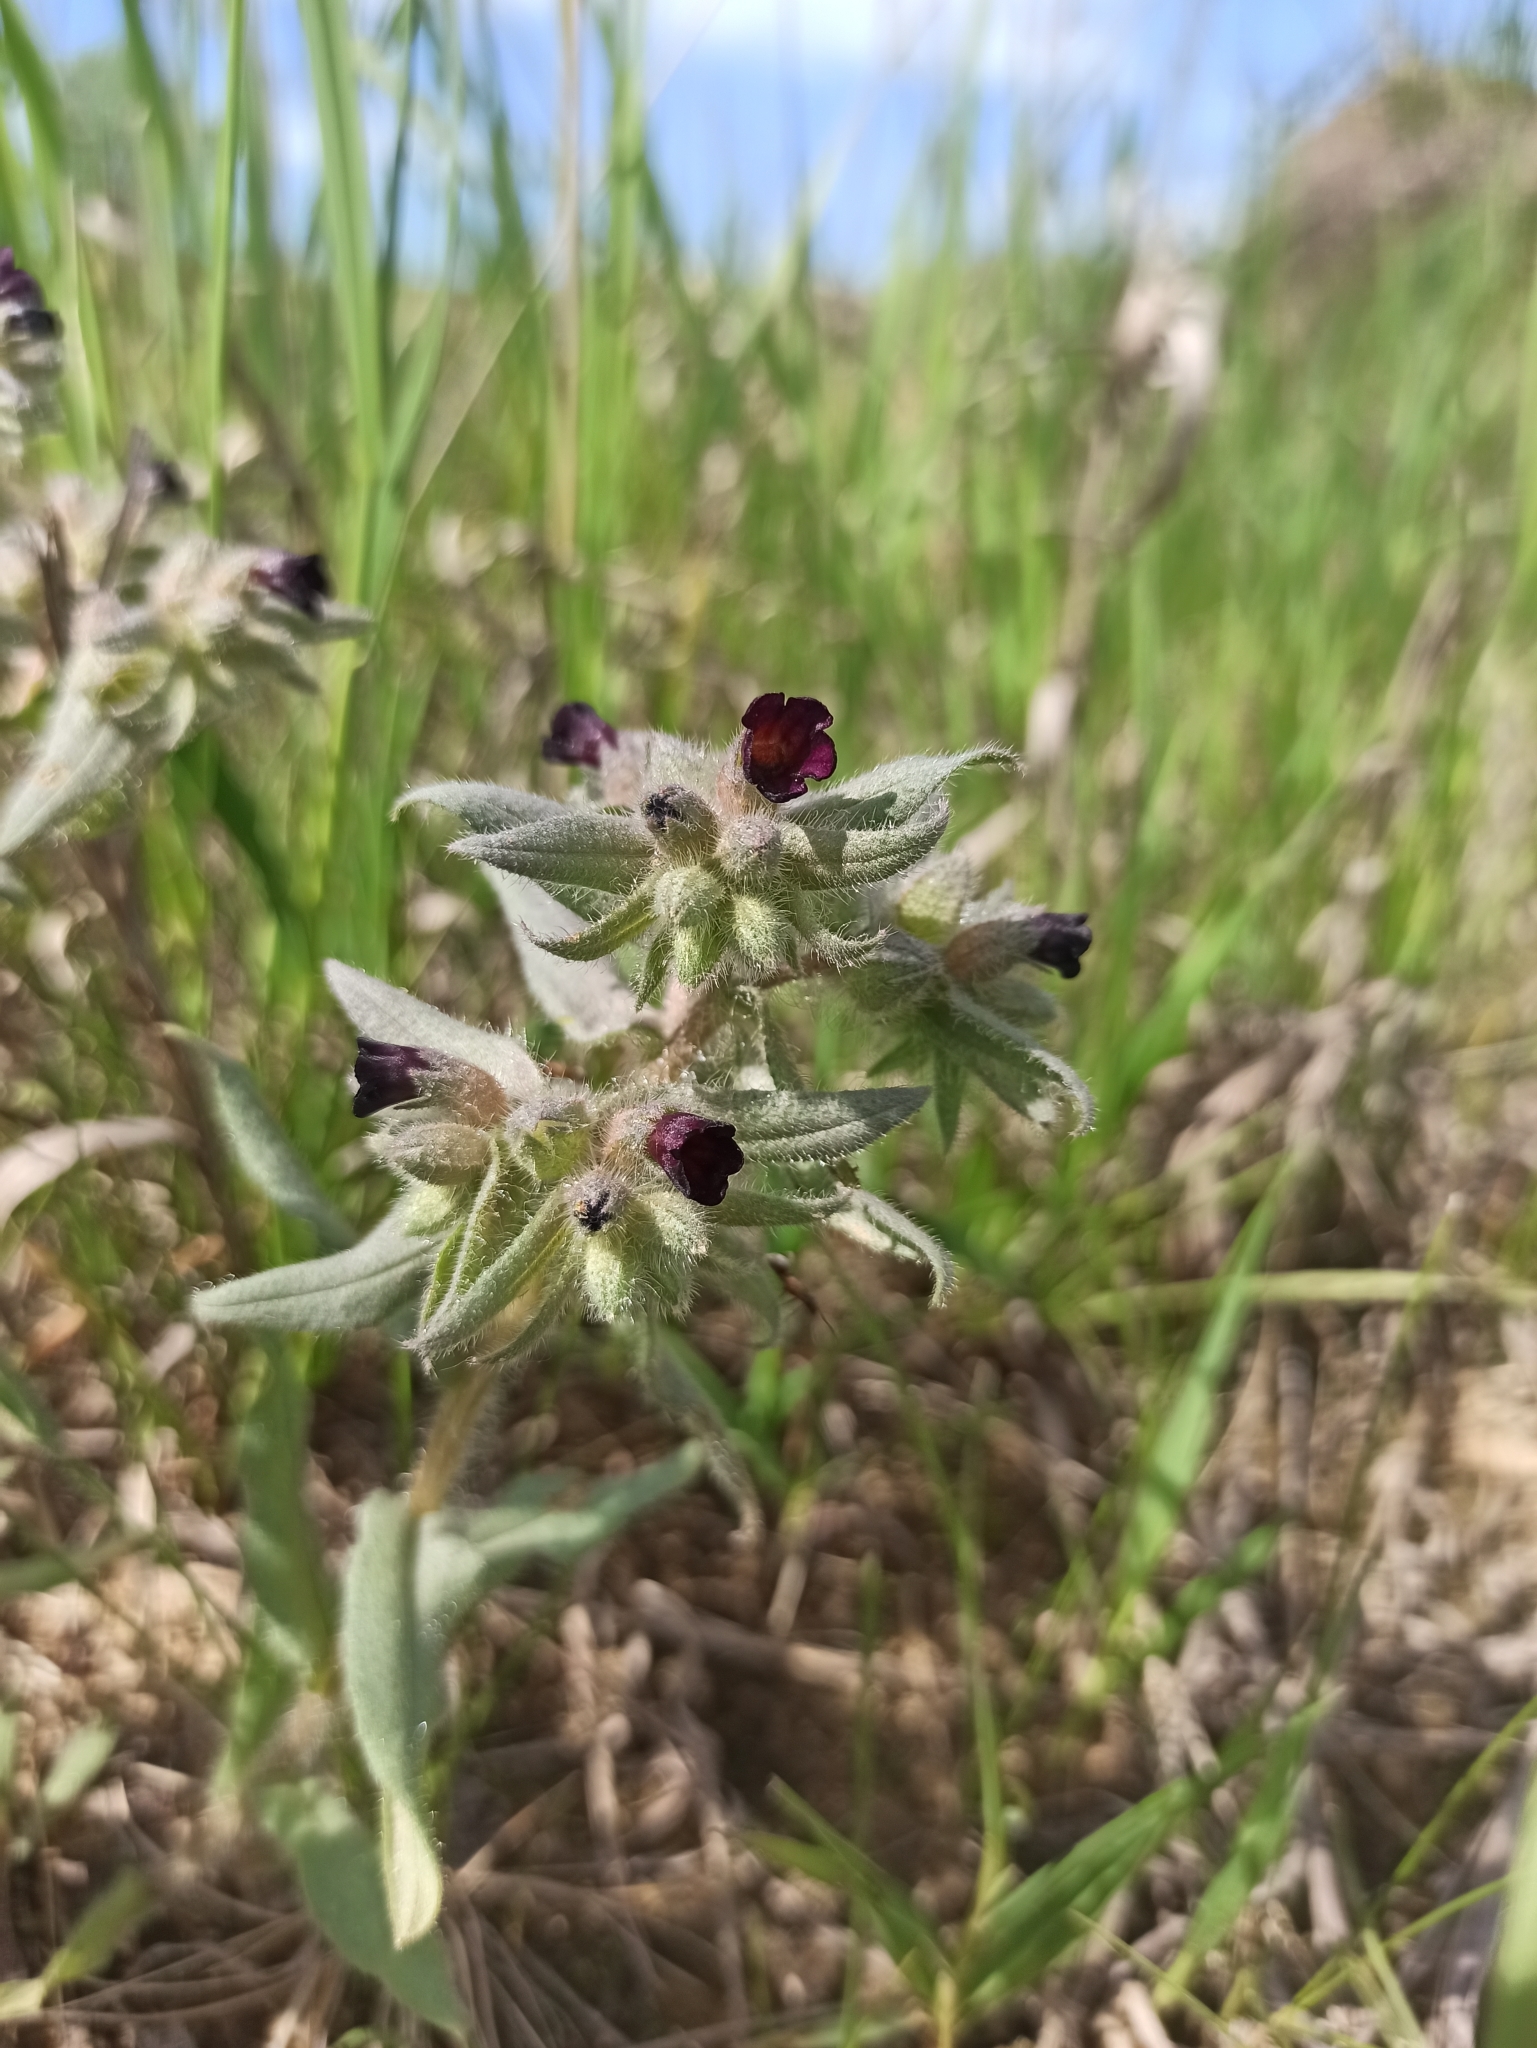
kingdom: Plantae
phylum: Tracheophyta
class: Magnoliopsida
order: Boraginales
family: Boraginaceae
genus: Nonea
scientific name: Nonea pulla
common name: Brown nonea
